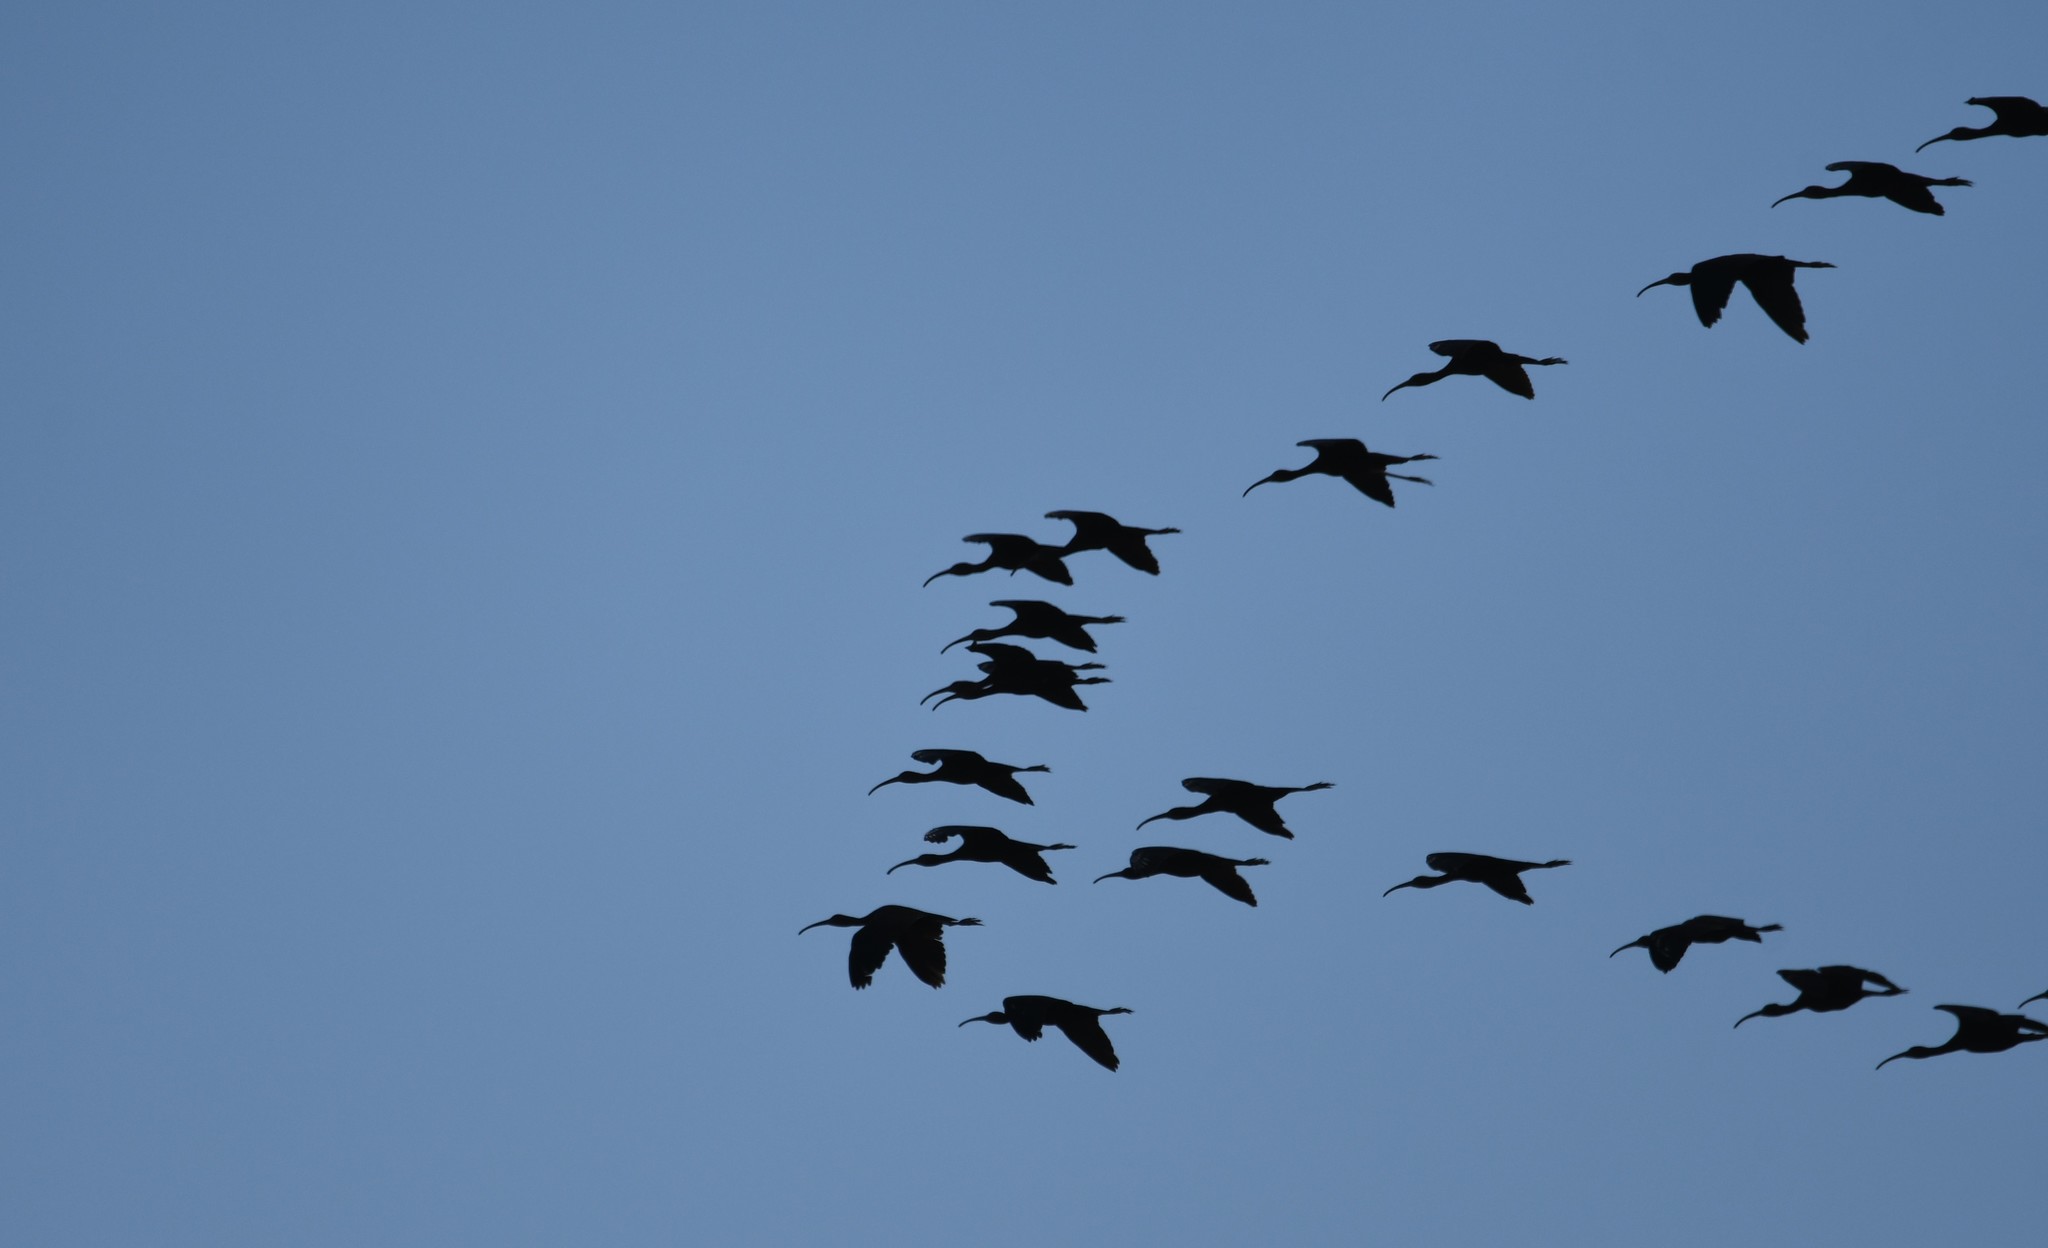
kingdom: Animalia
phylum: Chordata
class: Aves
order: Pelecaniformes
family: Threskiornithidae
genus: Plegadis
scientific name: Plegadis falcinellus
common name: Glossy ibis
